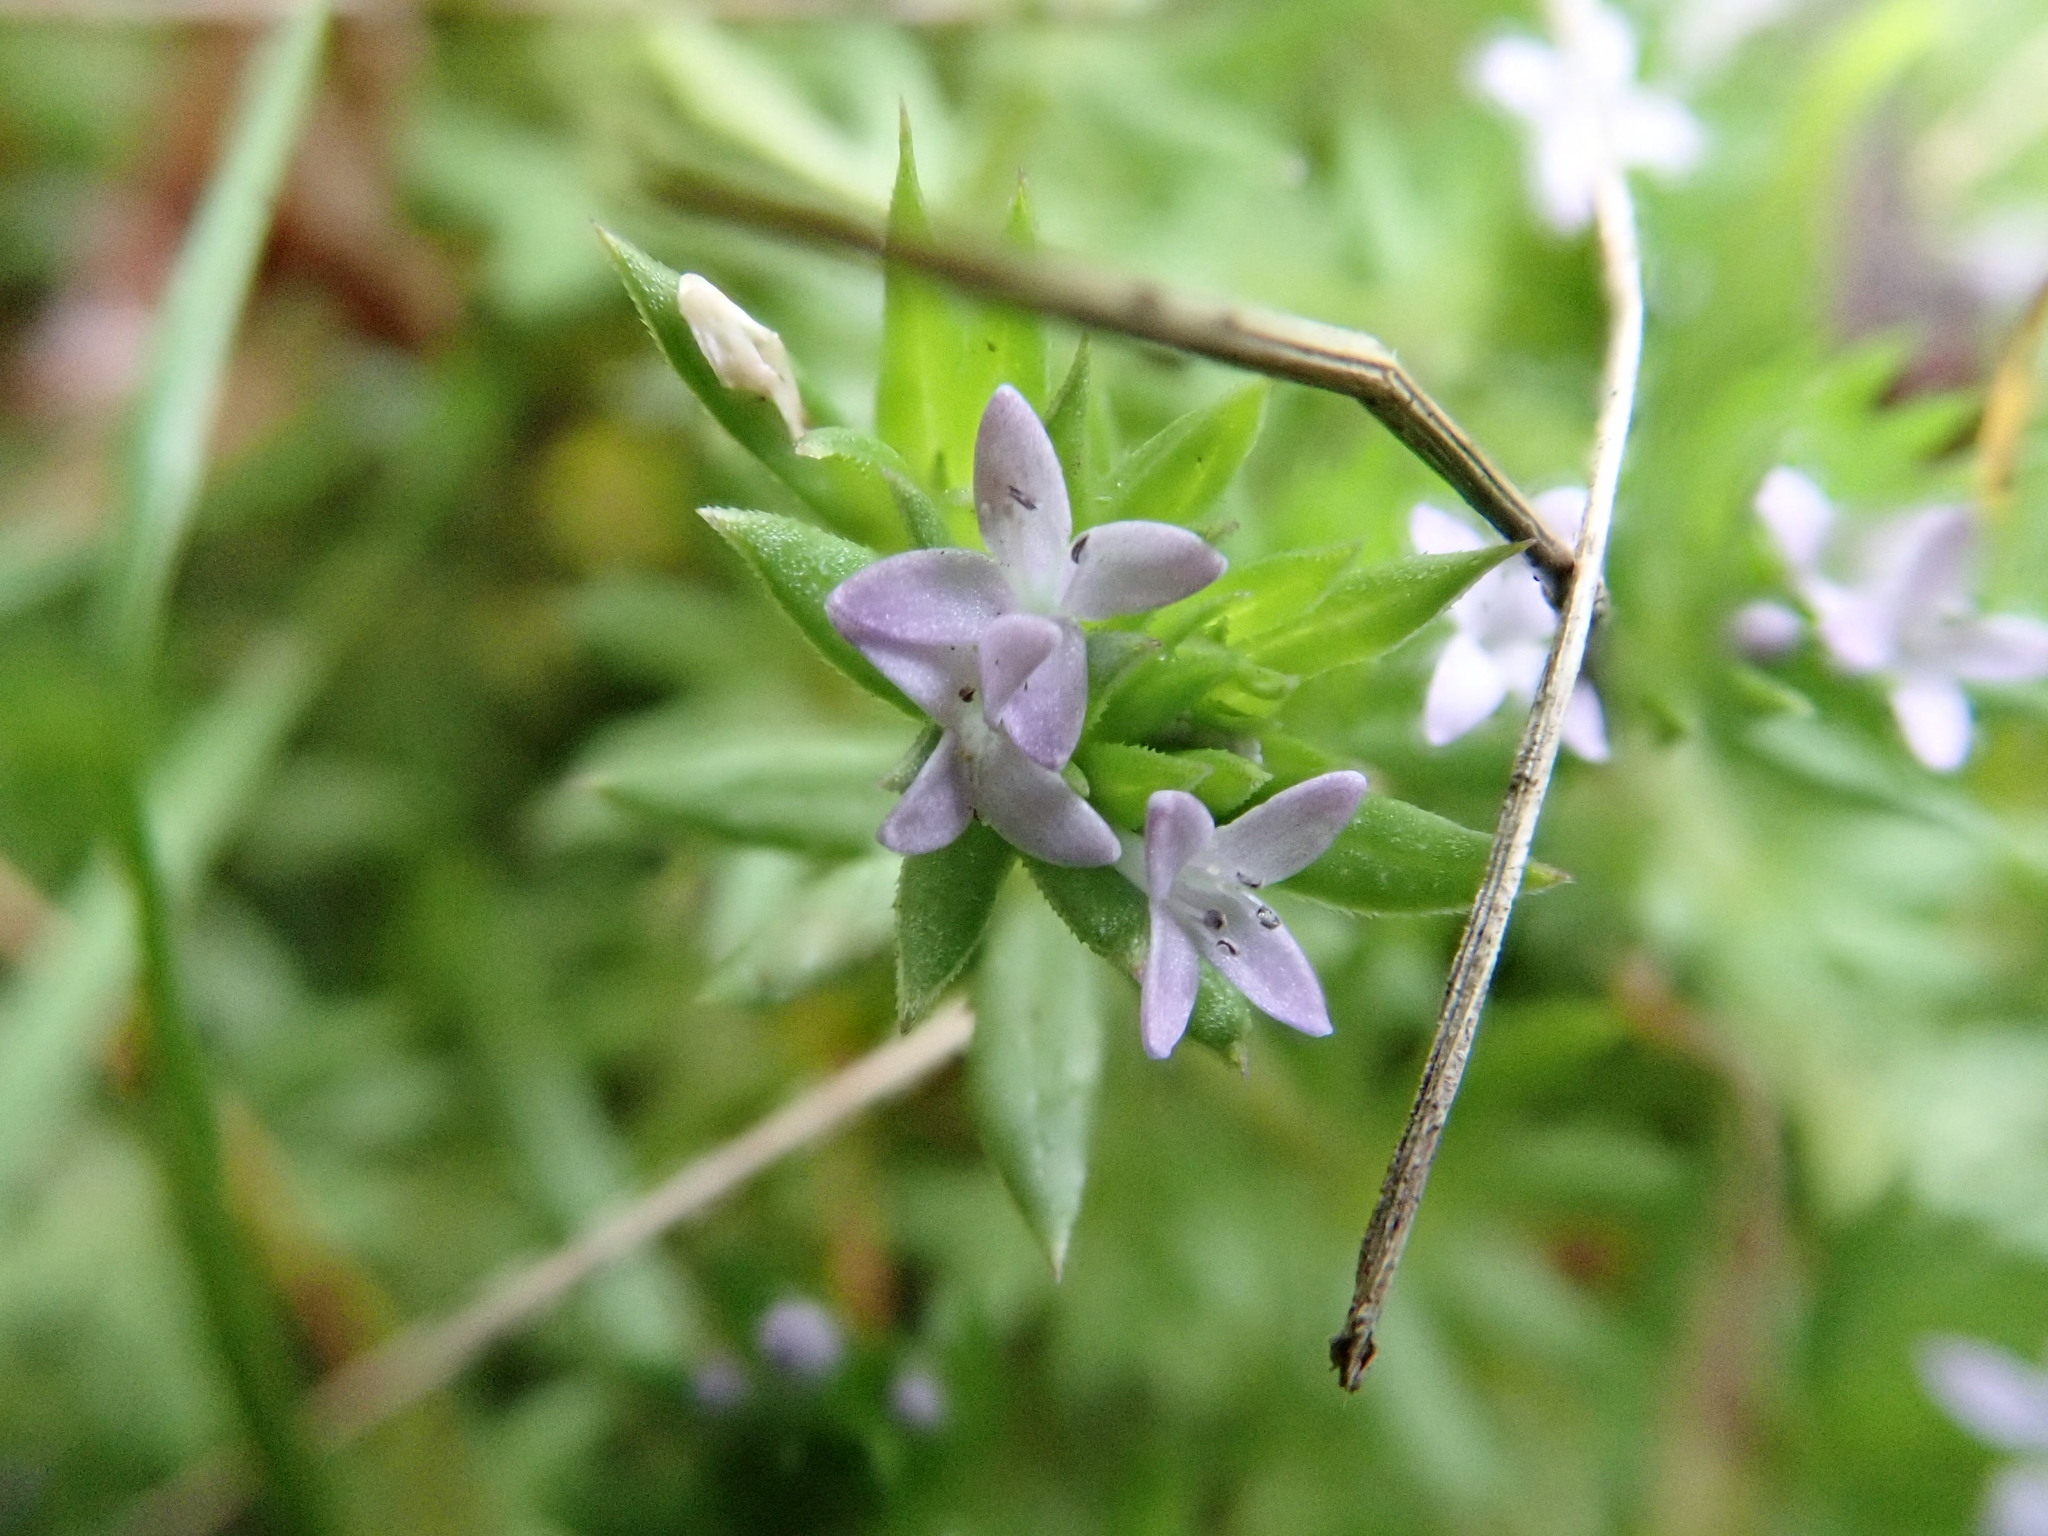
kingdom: Plantae
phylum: Tracheophyta
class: Magnoliopsida
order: Gentianales
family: Rubiaceae
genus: Sherardia
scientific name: Sherardia arvensis
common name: Field madder
